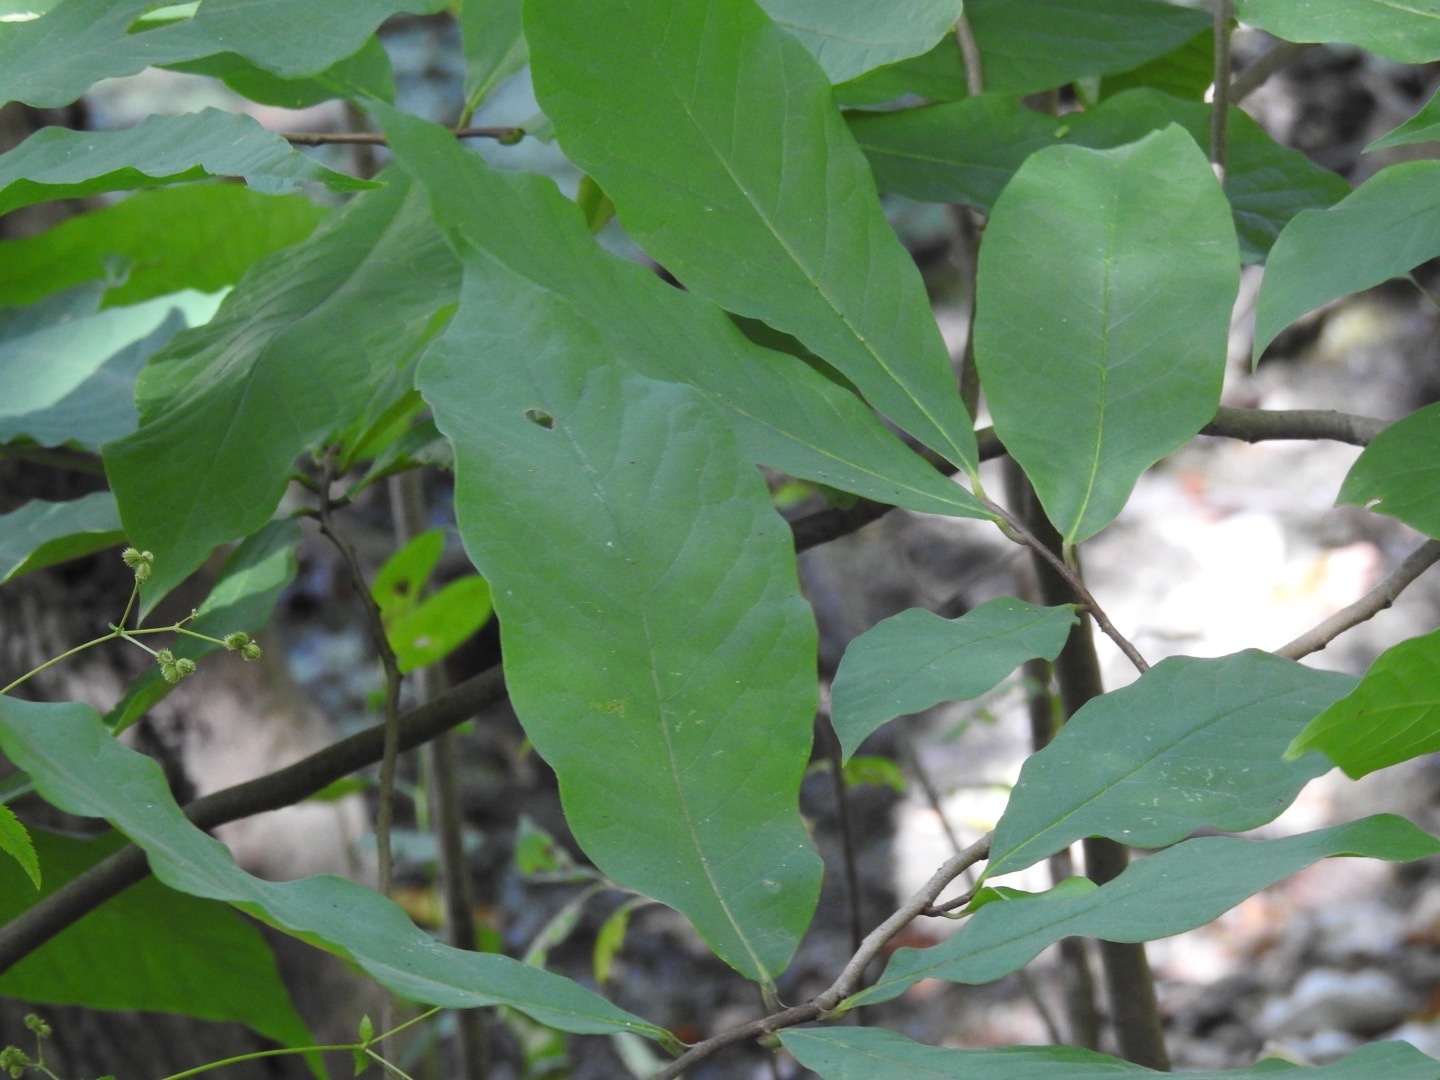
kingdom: Plantae
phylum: Tracheophyta
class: Magnoliopsida
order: Magnoliales
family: Annonaceae
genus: Asimina
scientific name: Asimina triloba
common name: Dog-banana
